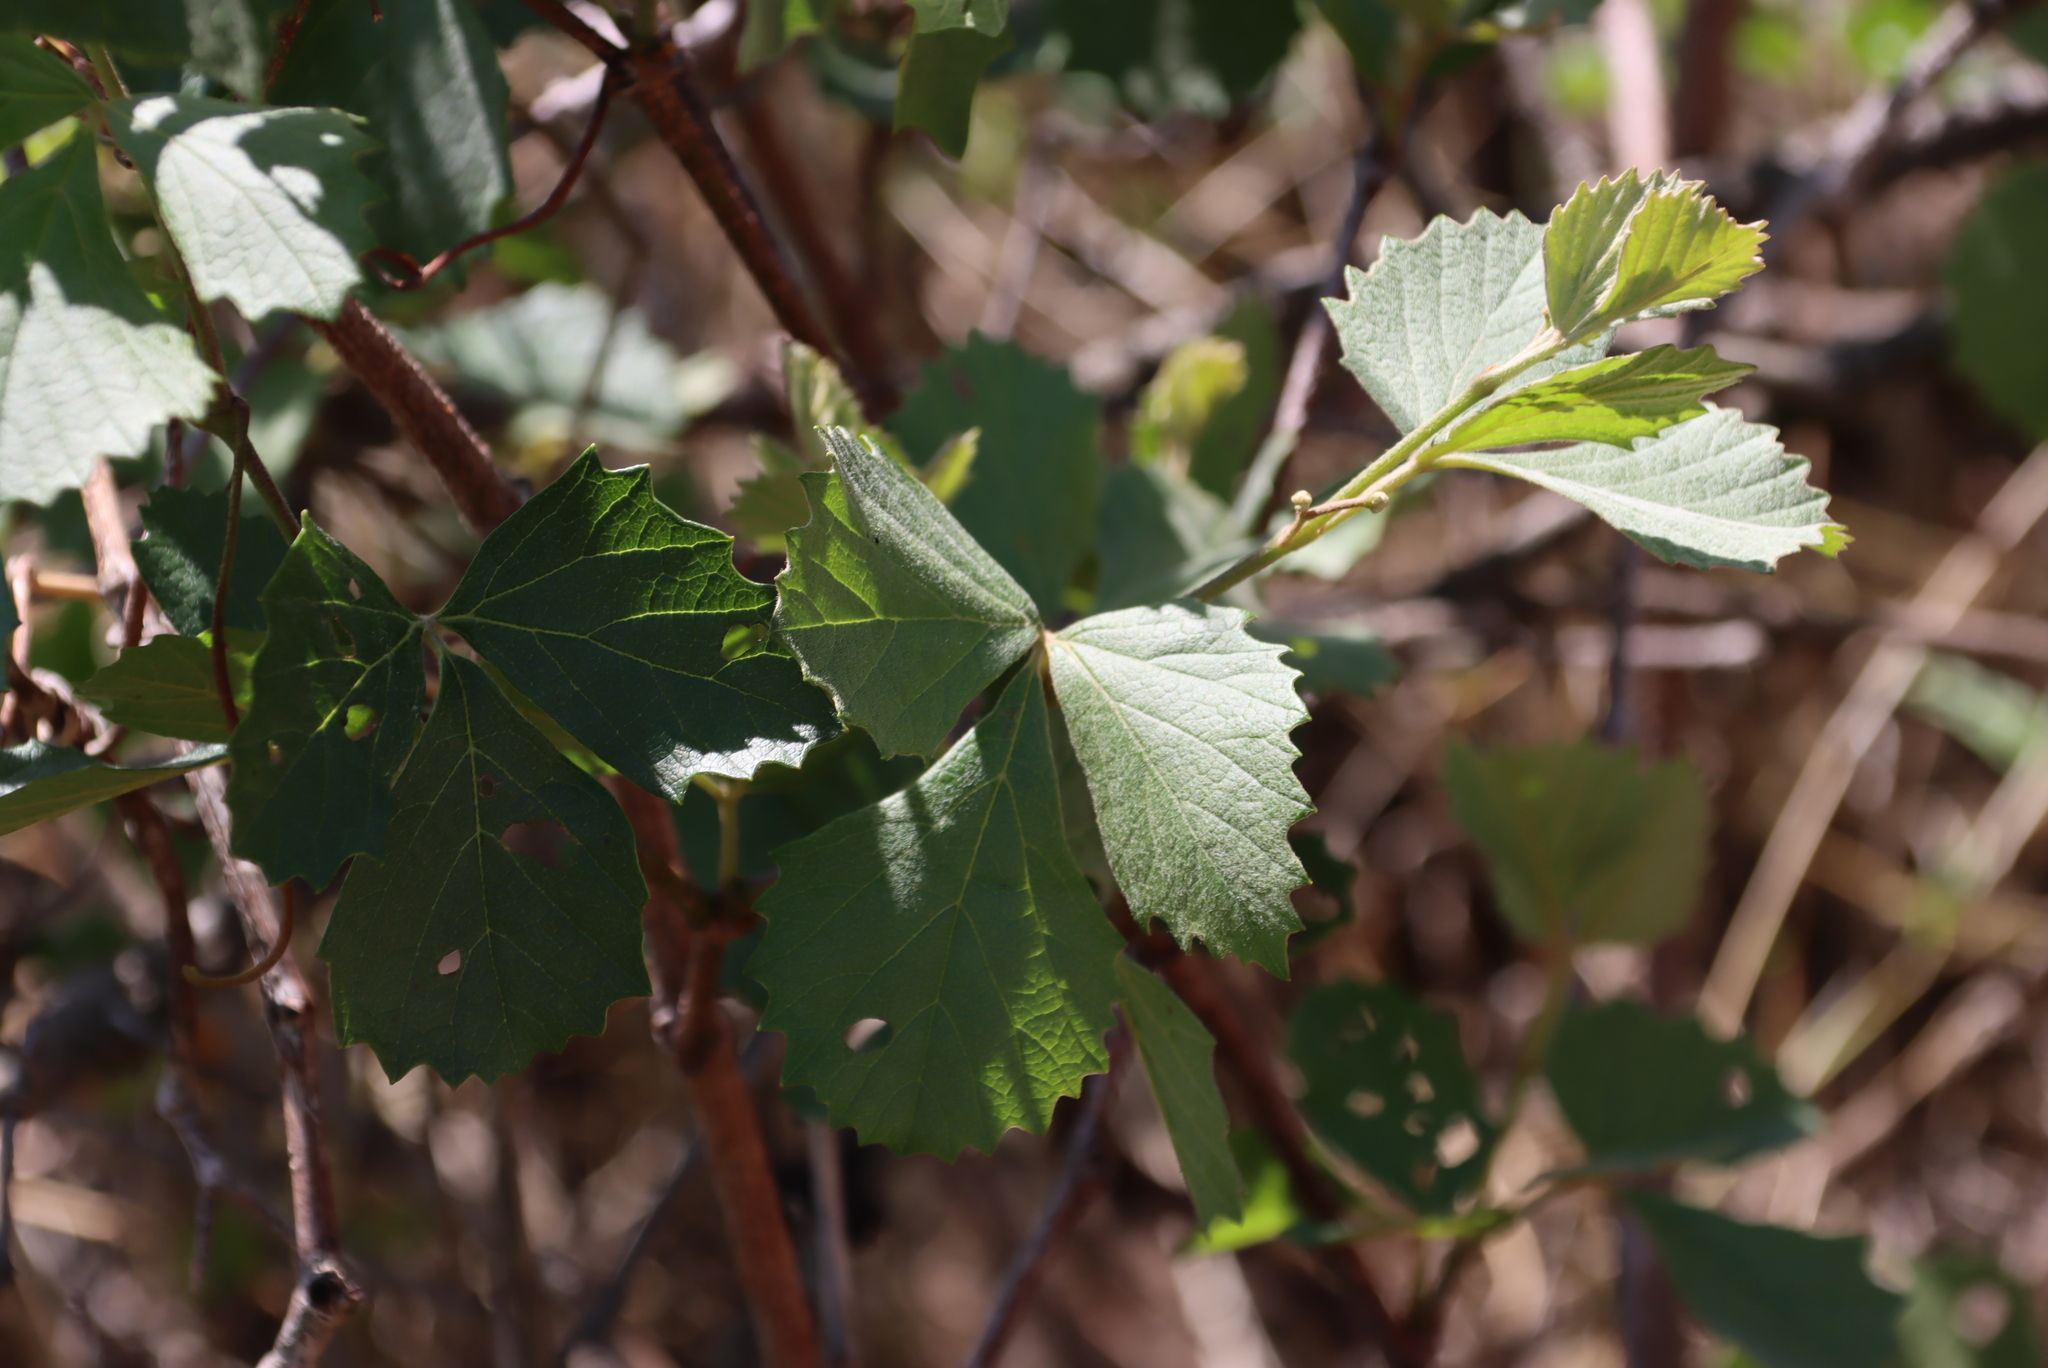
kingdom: Plantae
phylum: Tracheophyta
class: Magnoliopsida
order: Vitales
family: Vitaceae
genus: Rhoicissus
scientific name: Rhoicissus tridentata
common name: Common forest grape
